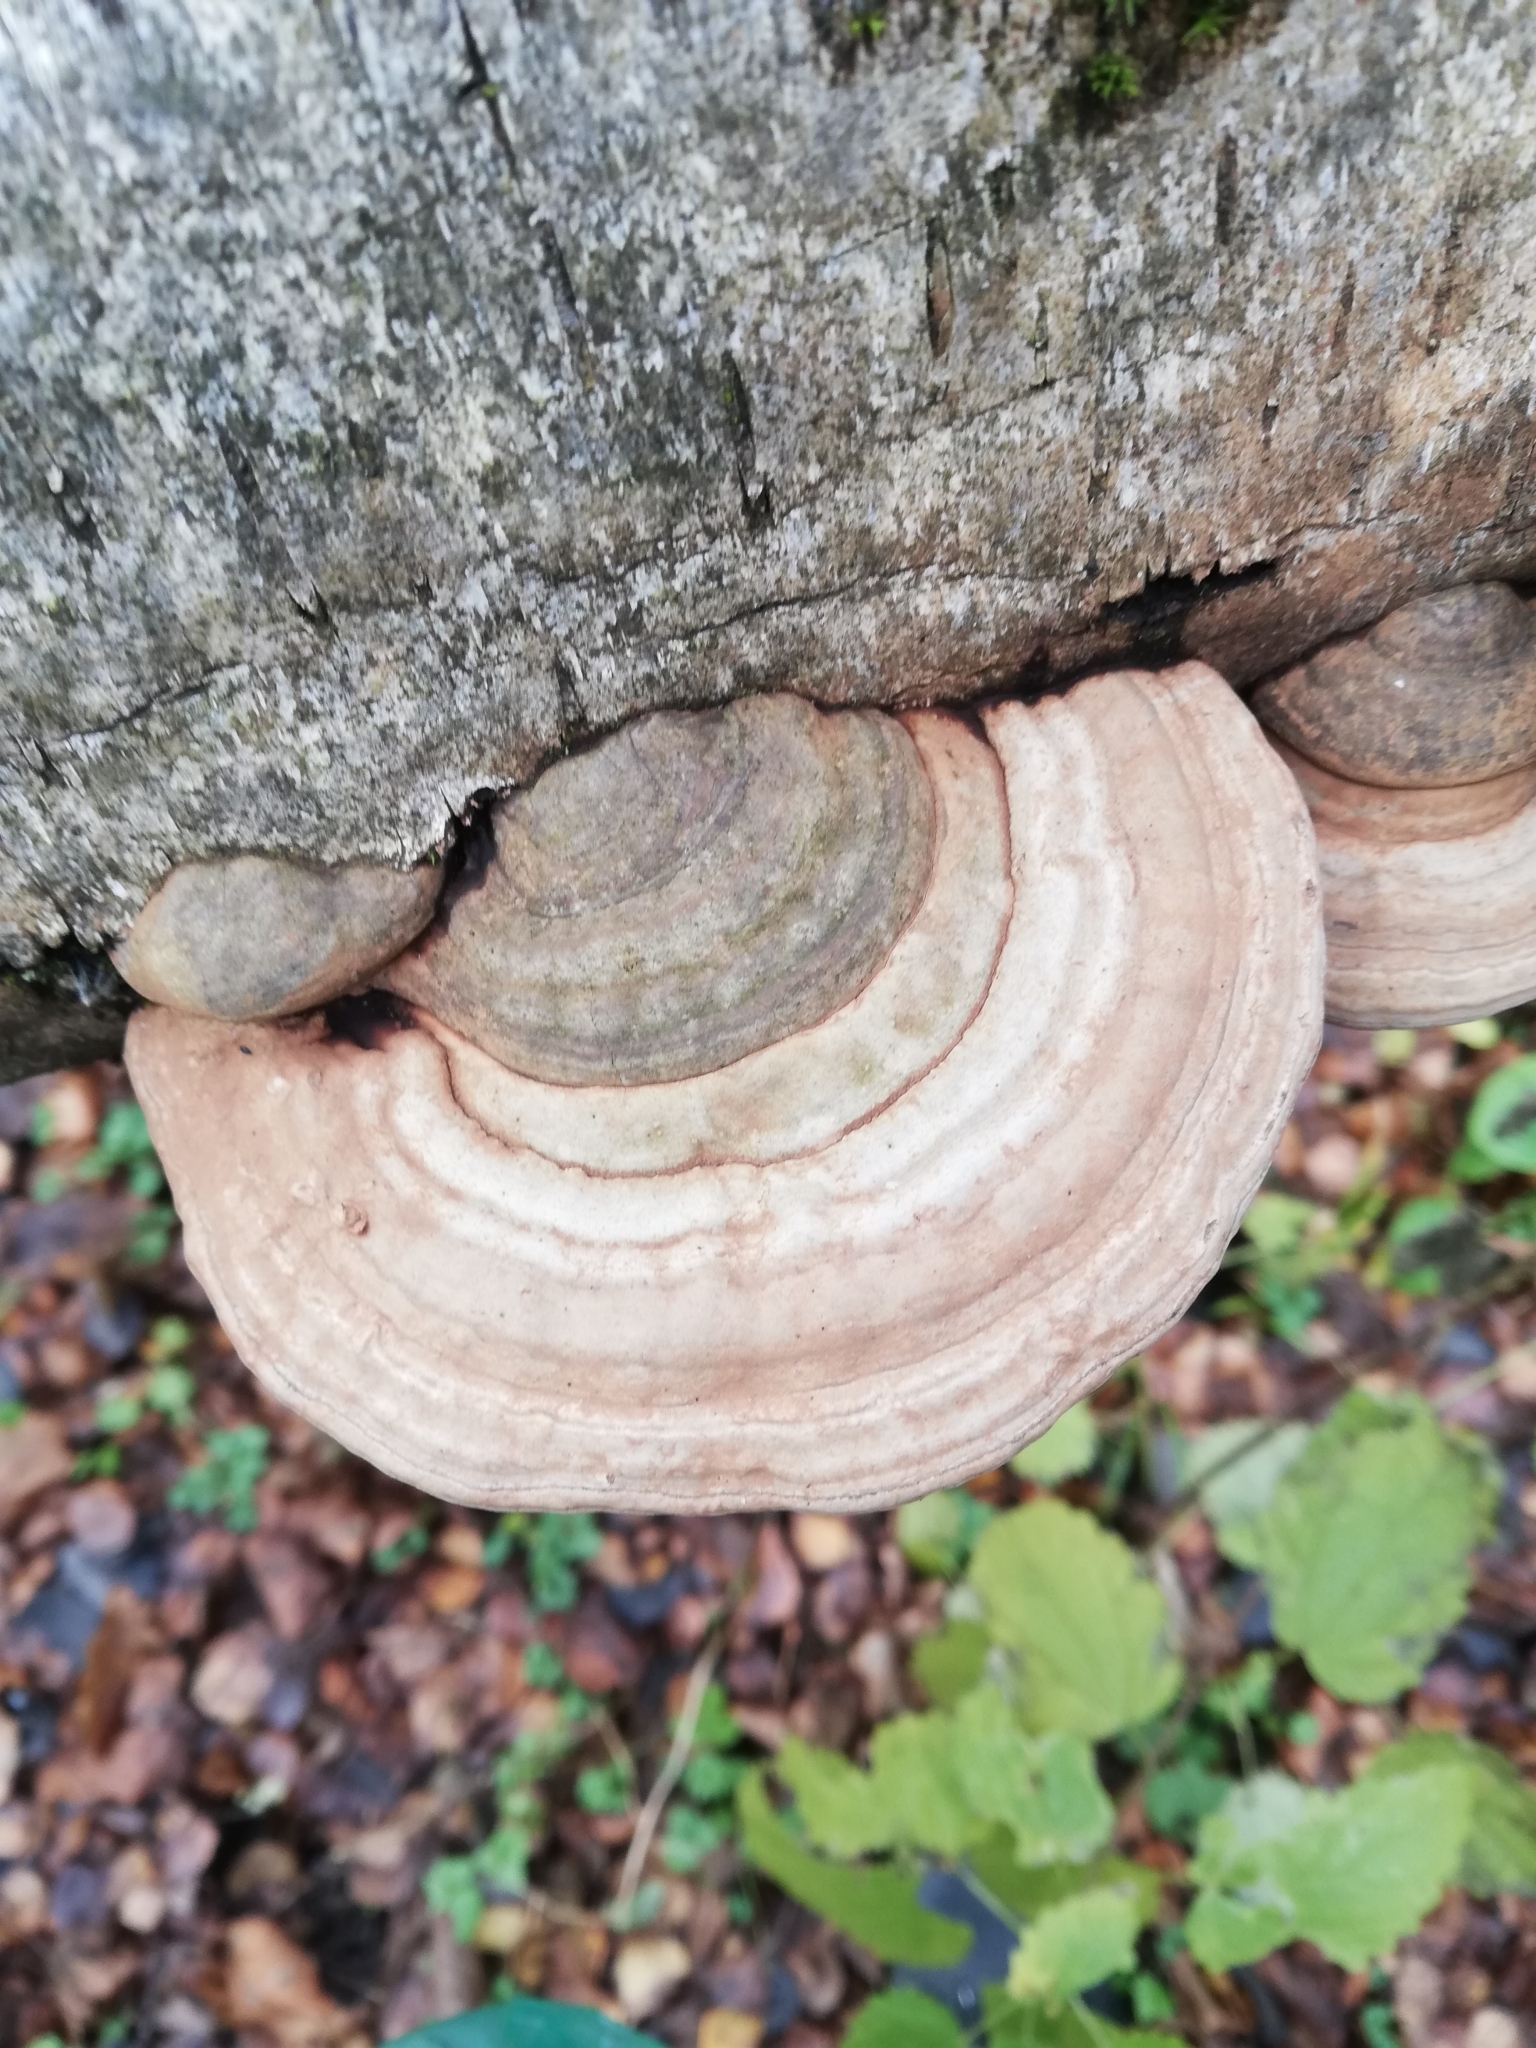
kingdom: Fungi
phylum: Basidiomycota
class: Agaricomycetes
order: Polyporales
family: Polyporaceae
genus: Ganoderma
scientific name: Ganoderma applanatum
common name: Artist's bracket
